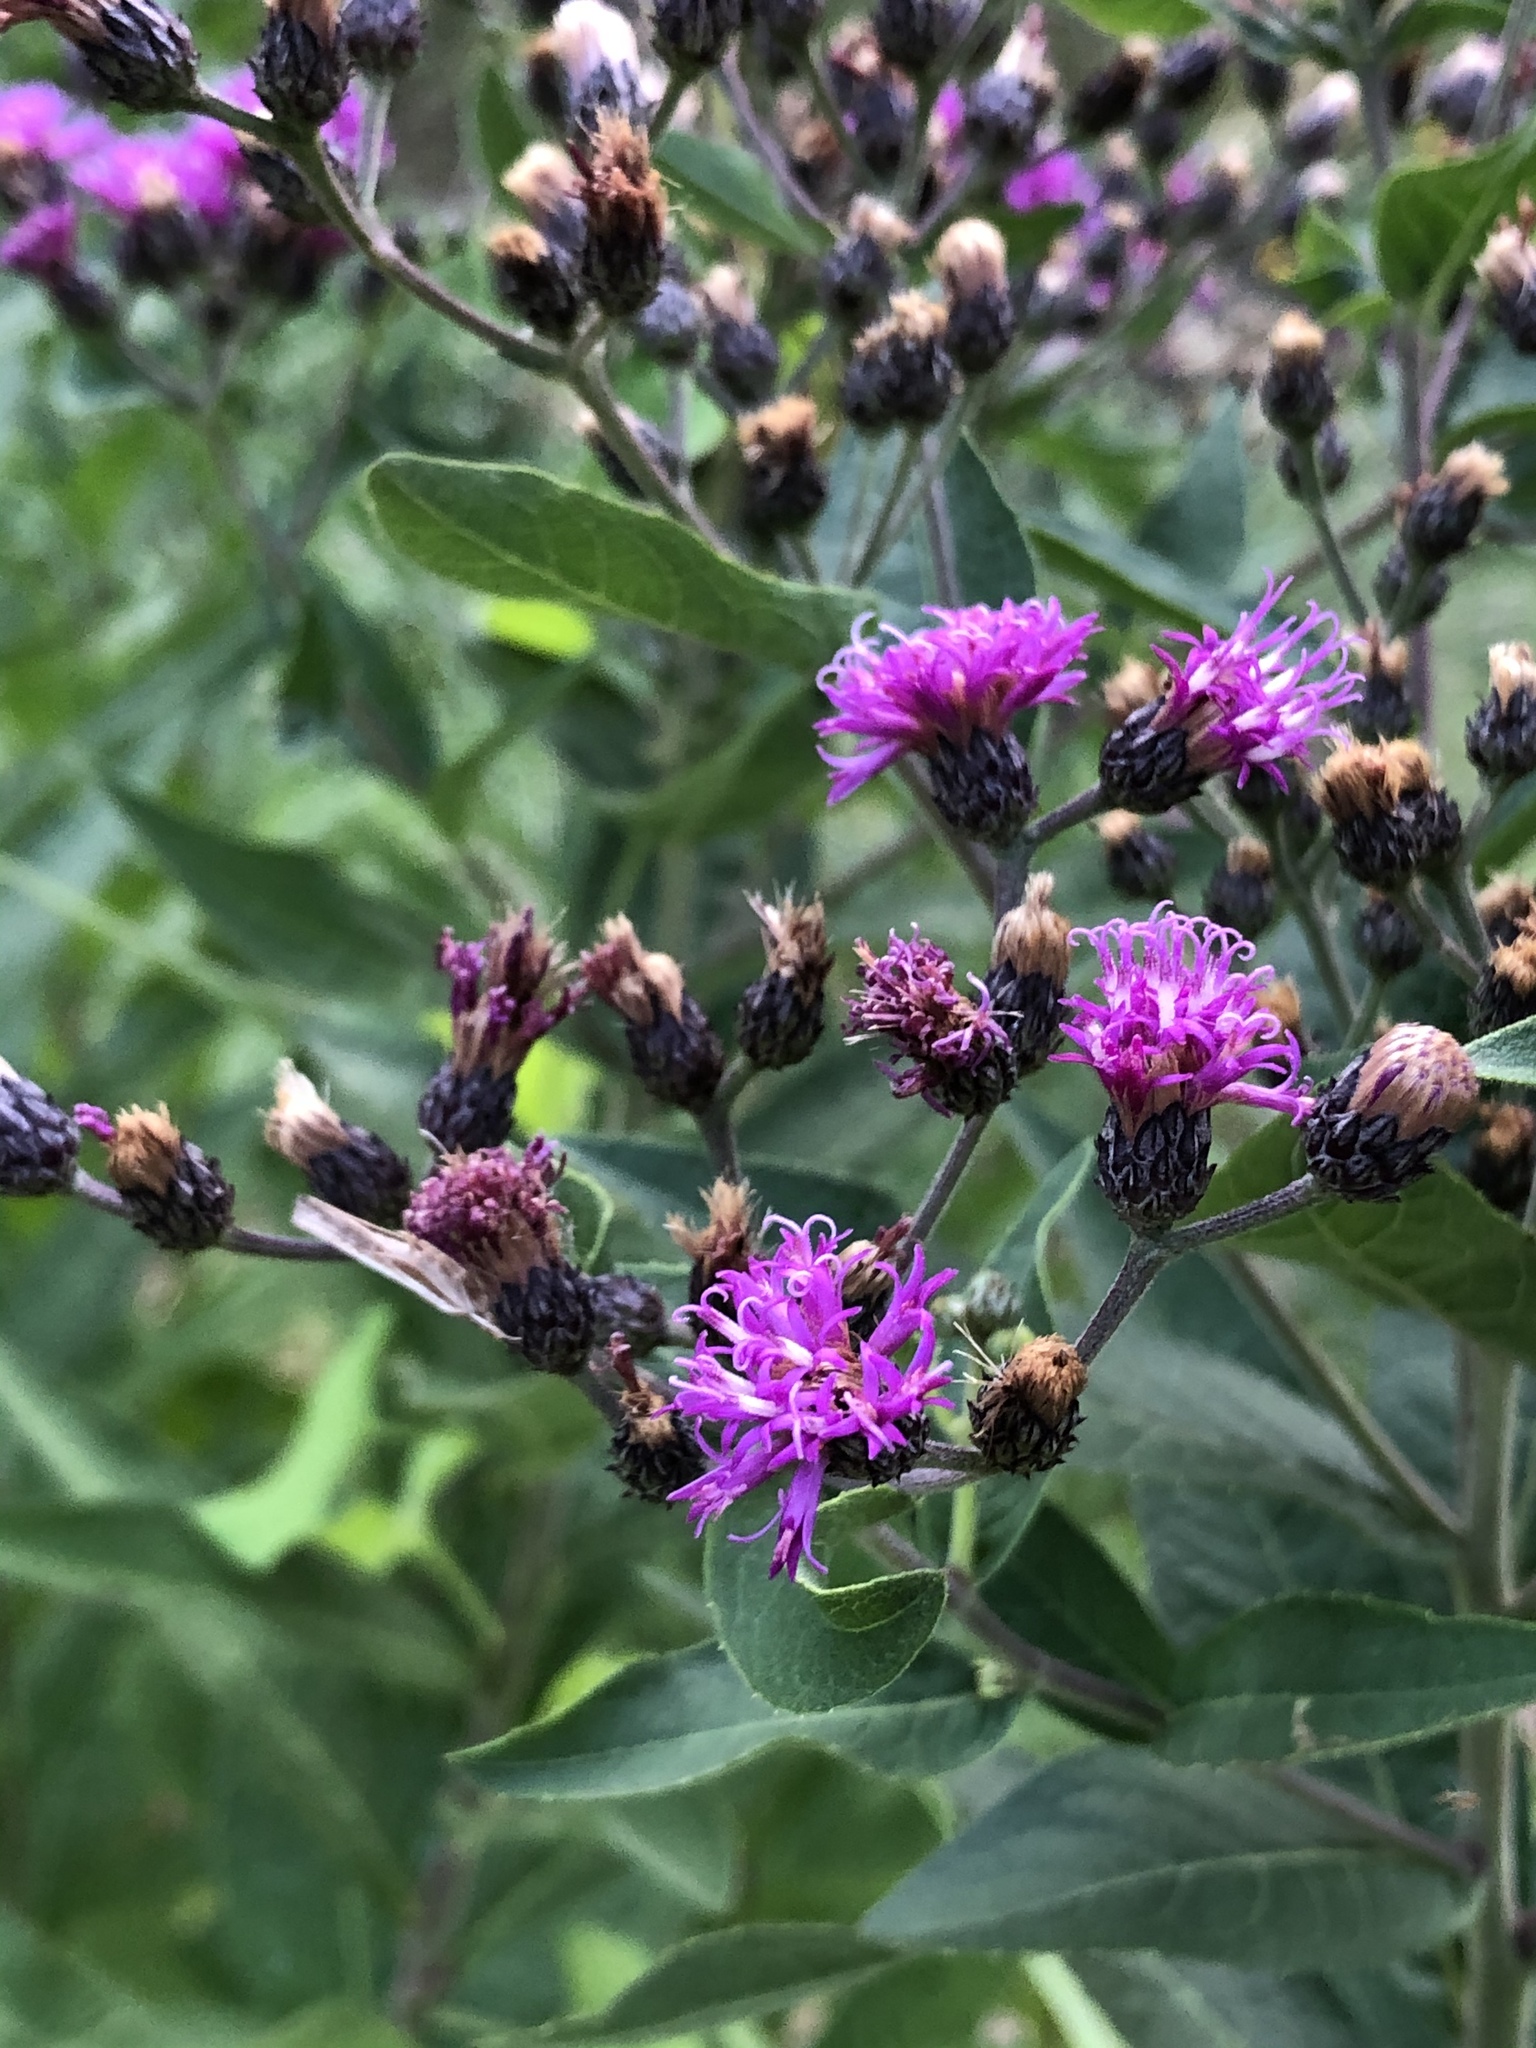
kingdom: Plantae
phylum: Tracheophyta
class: Magnoliopsida
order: Asterales
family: Asteraceae
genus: Vernonia
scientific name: Vernonia baldwinii
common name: Western ironweed
